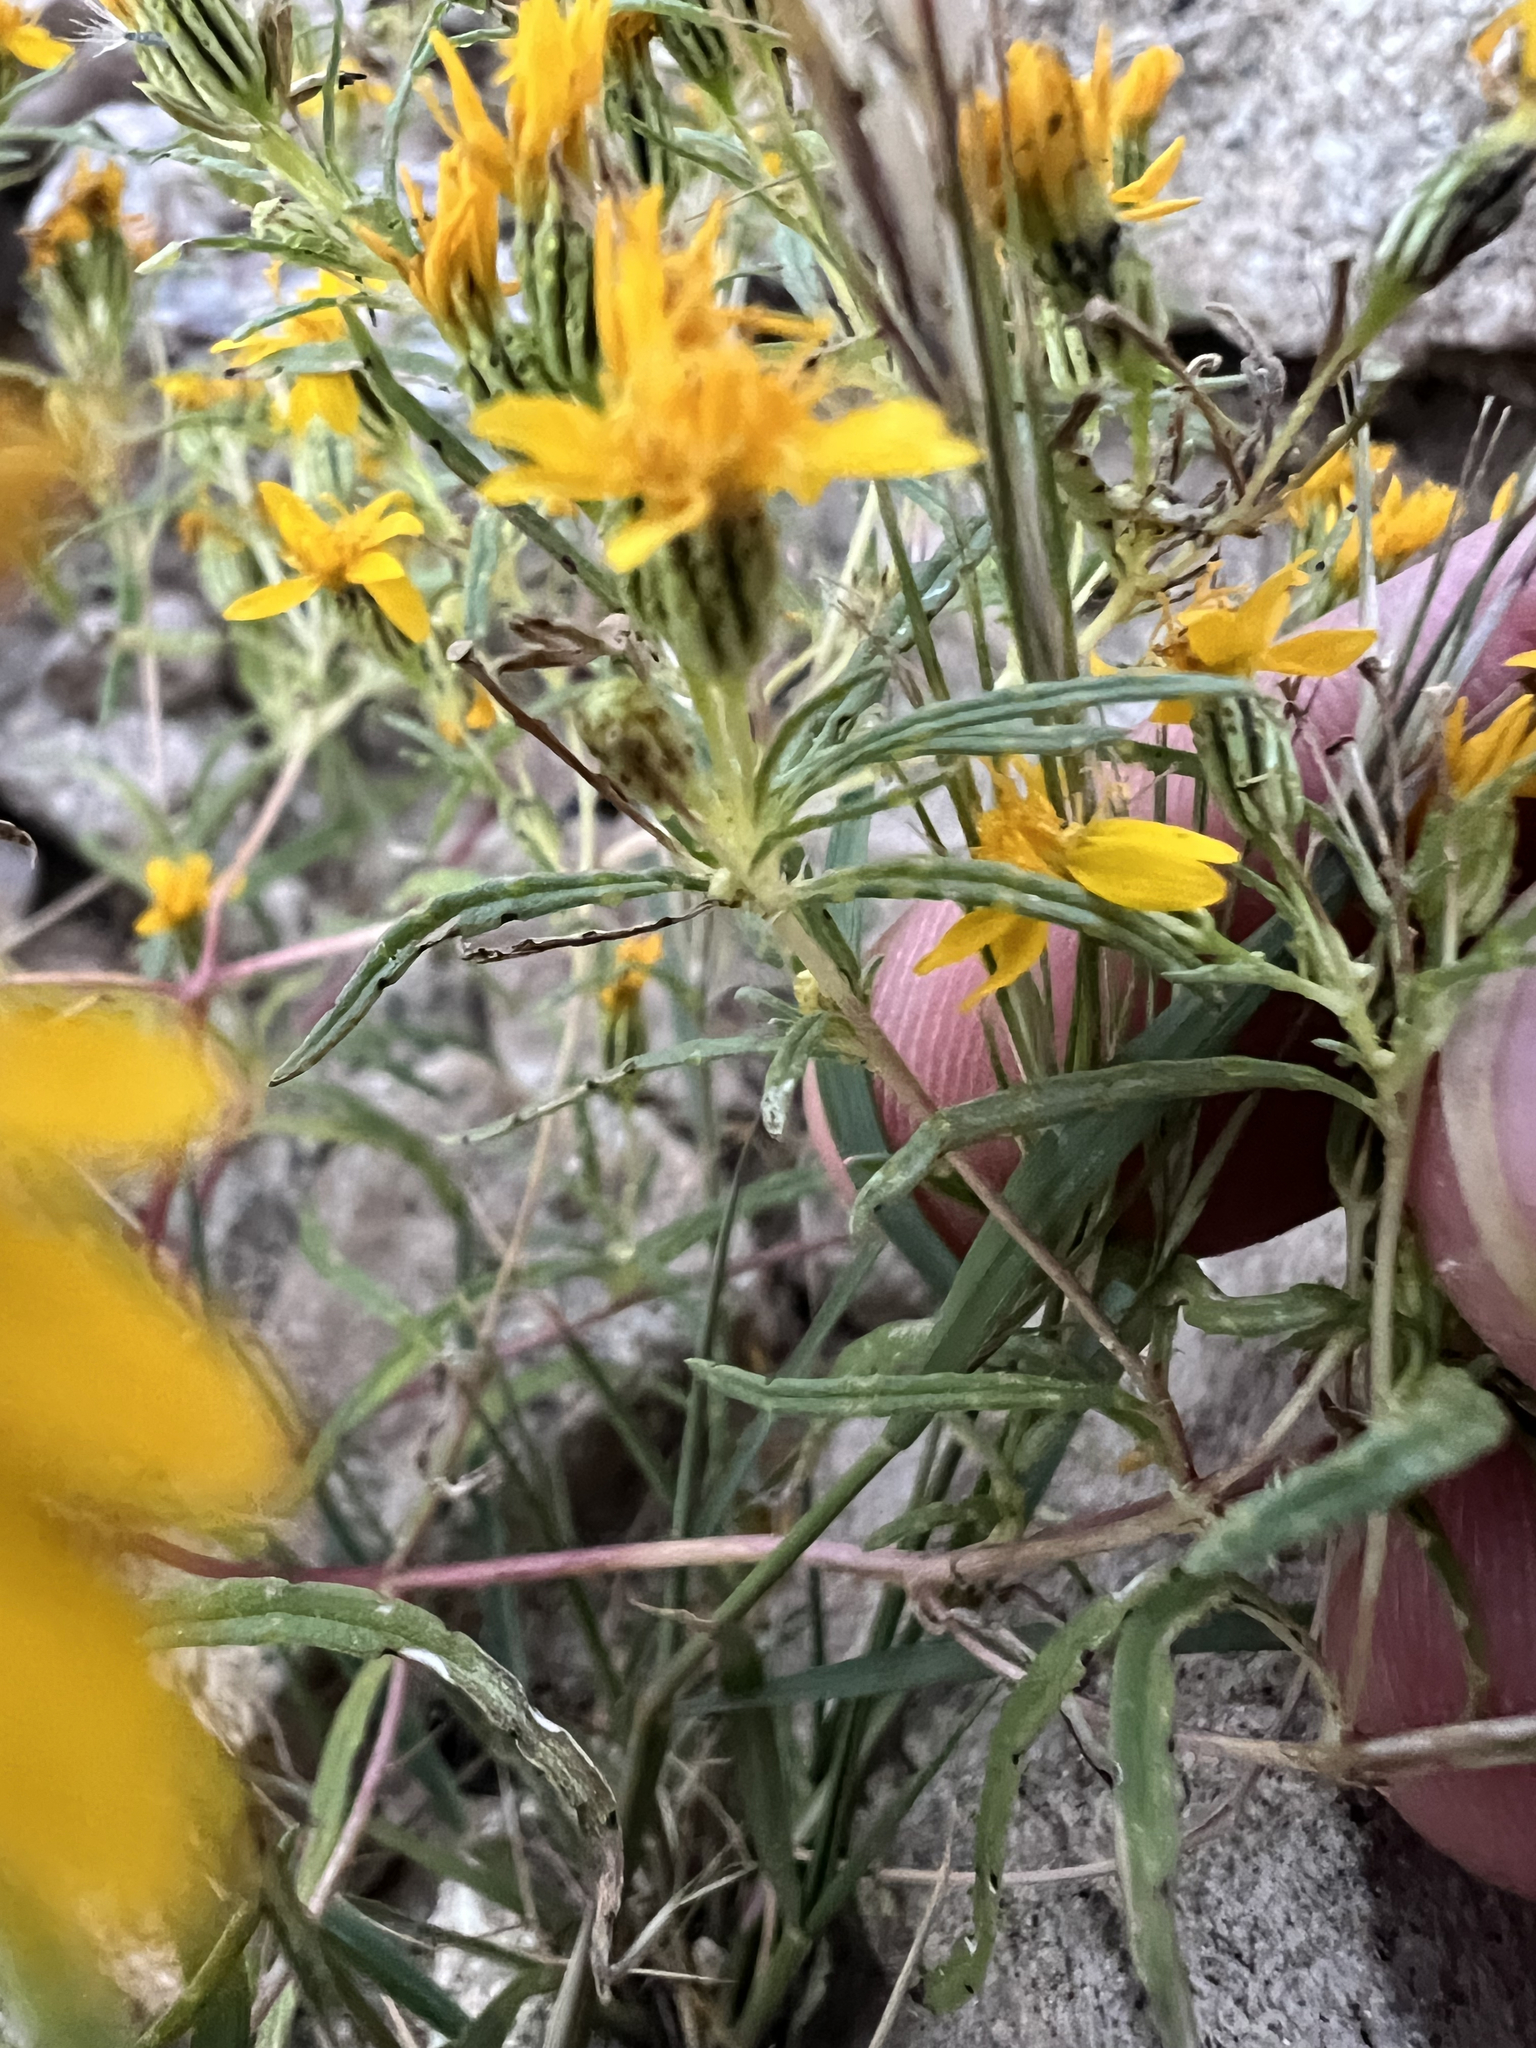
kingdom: Plantae
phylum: Tracheophyta
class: Magnoliopsida
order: Asterales
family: Asteraceae
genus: Pectis
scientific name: Pectis papposa
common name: Many-bristle chinchweed
